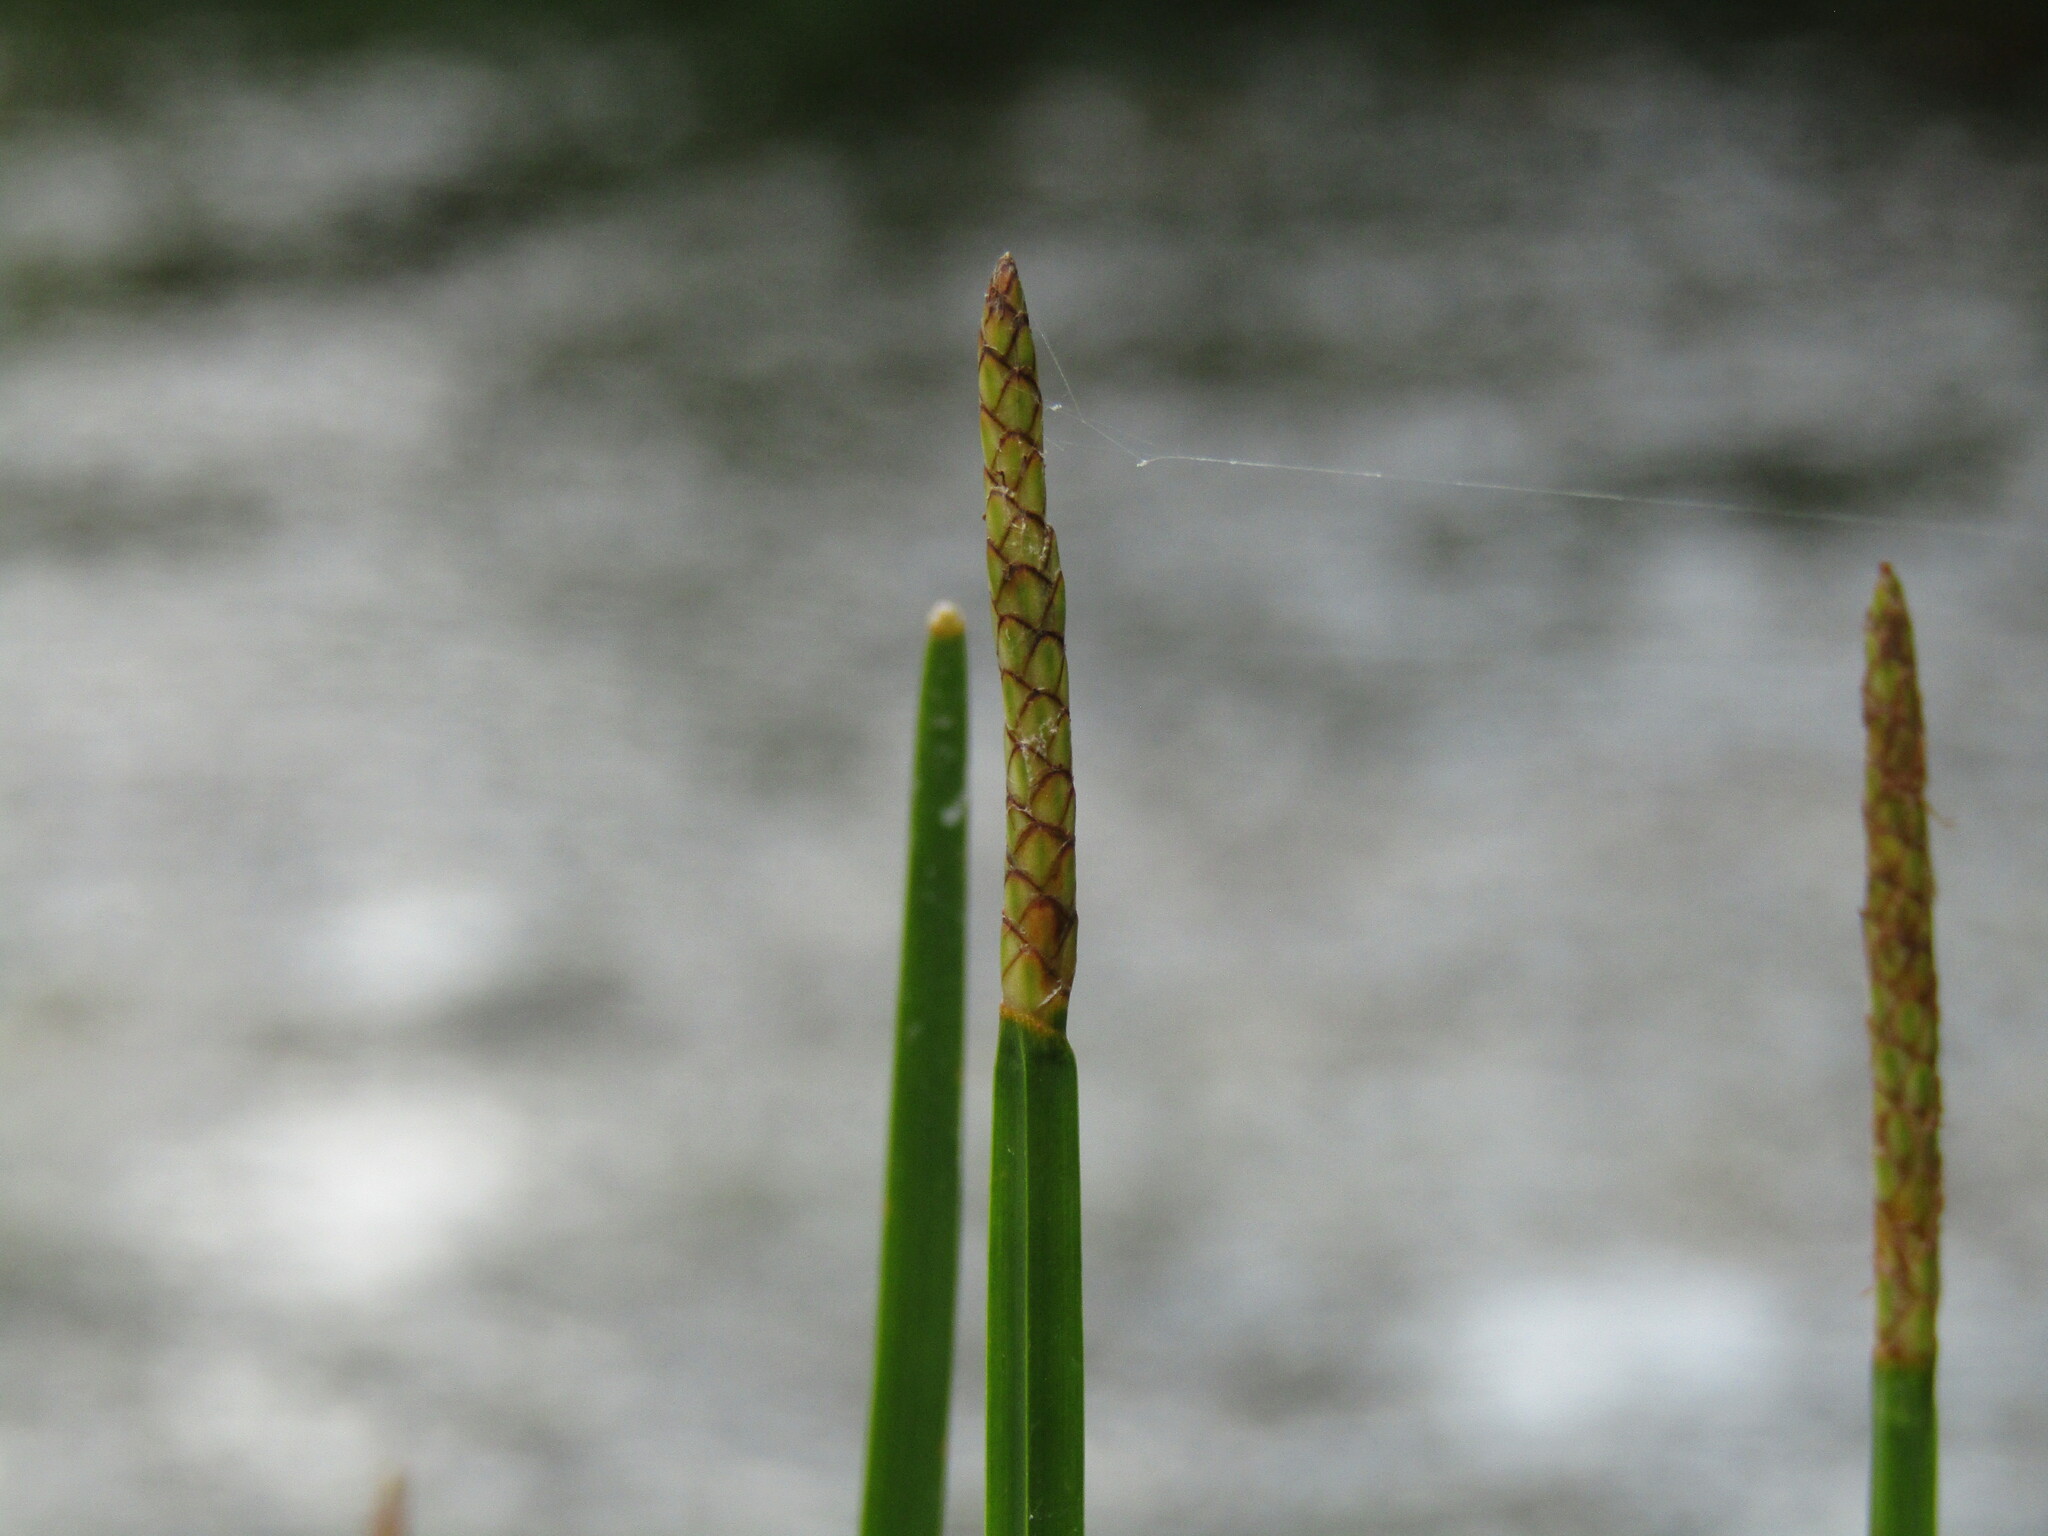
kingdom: Plantae
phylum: Tracheophyta
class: Liliopsida
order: Poales
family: Cyperaceae
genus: Eleocharis
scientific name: Eleocharis quadrangulata
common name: Square-stem spike-rush
